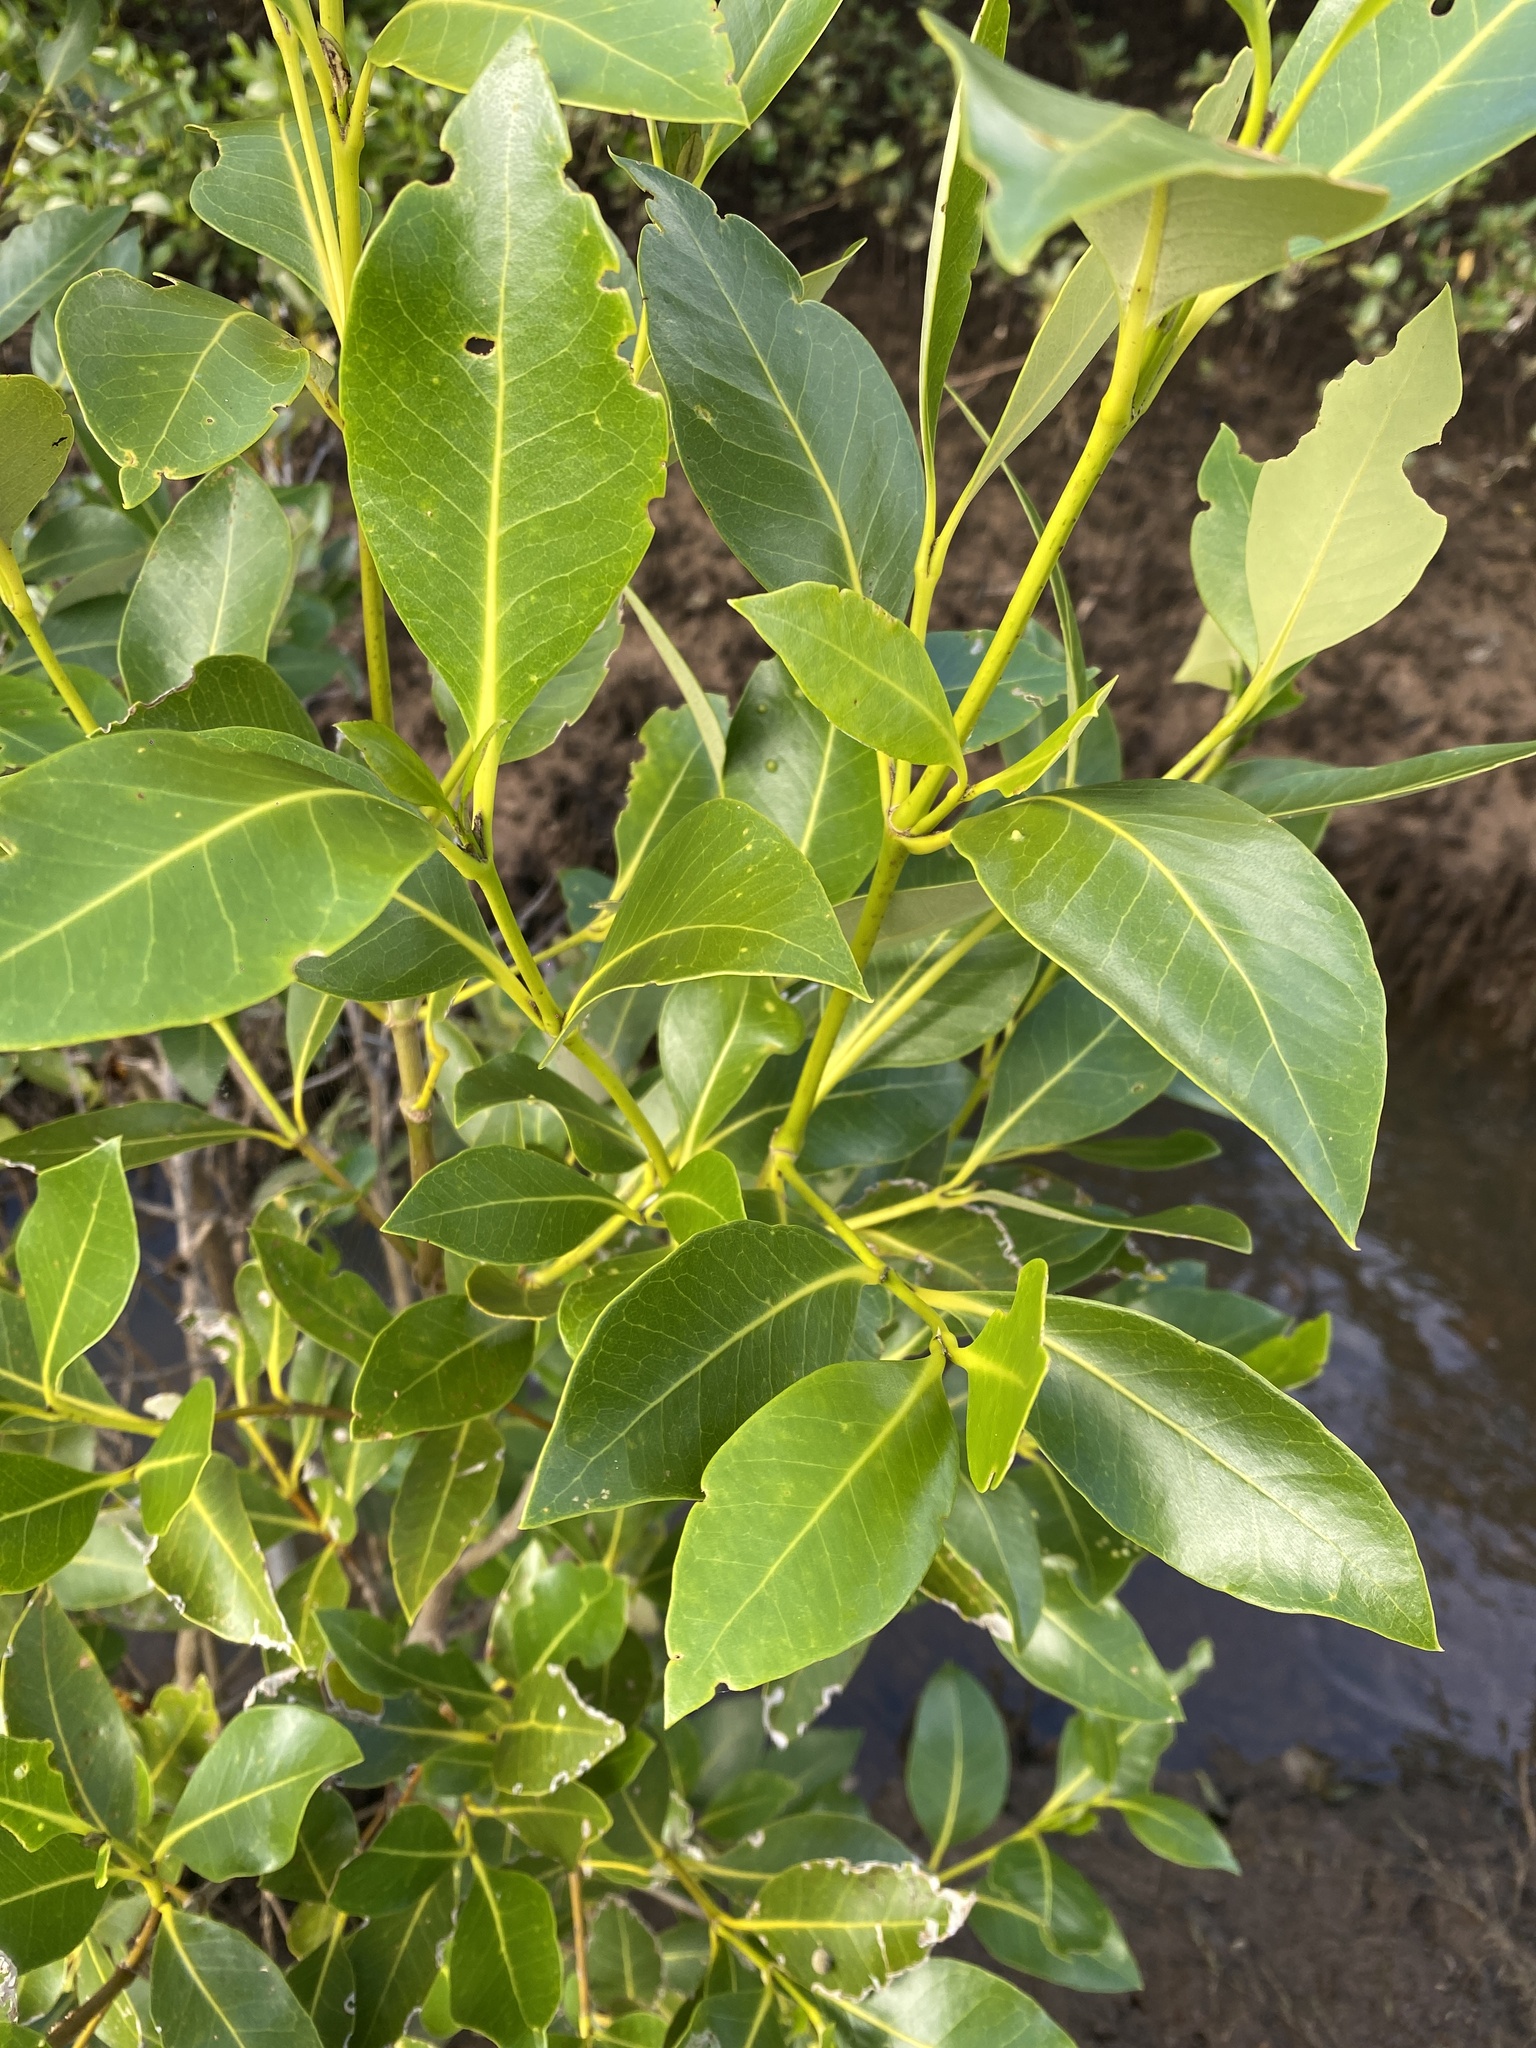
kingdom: Plantae
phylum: Tracheophyta
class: Magnoliopsida
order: Lamiales
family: Acanthaceae
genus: Avicennia
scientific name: Avicennia marina
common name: Gray mangrove
